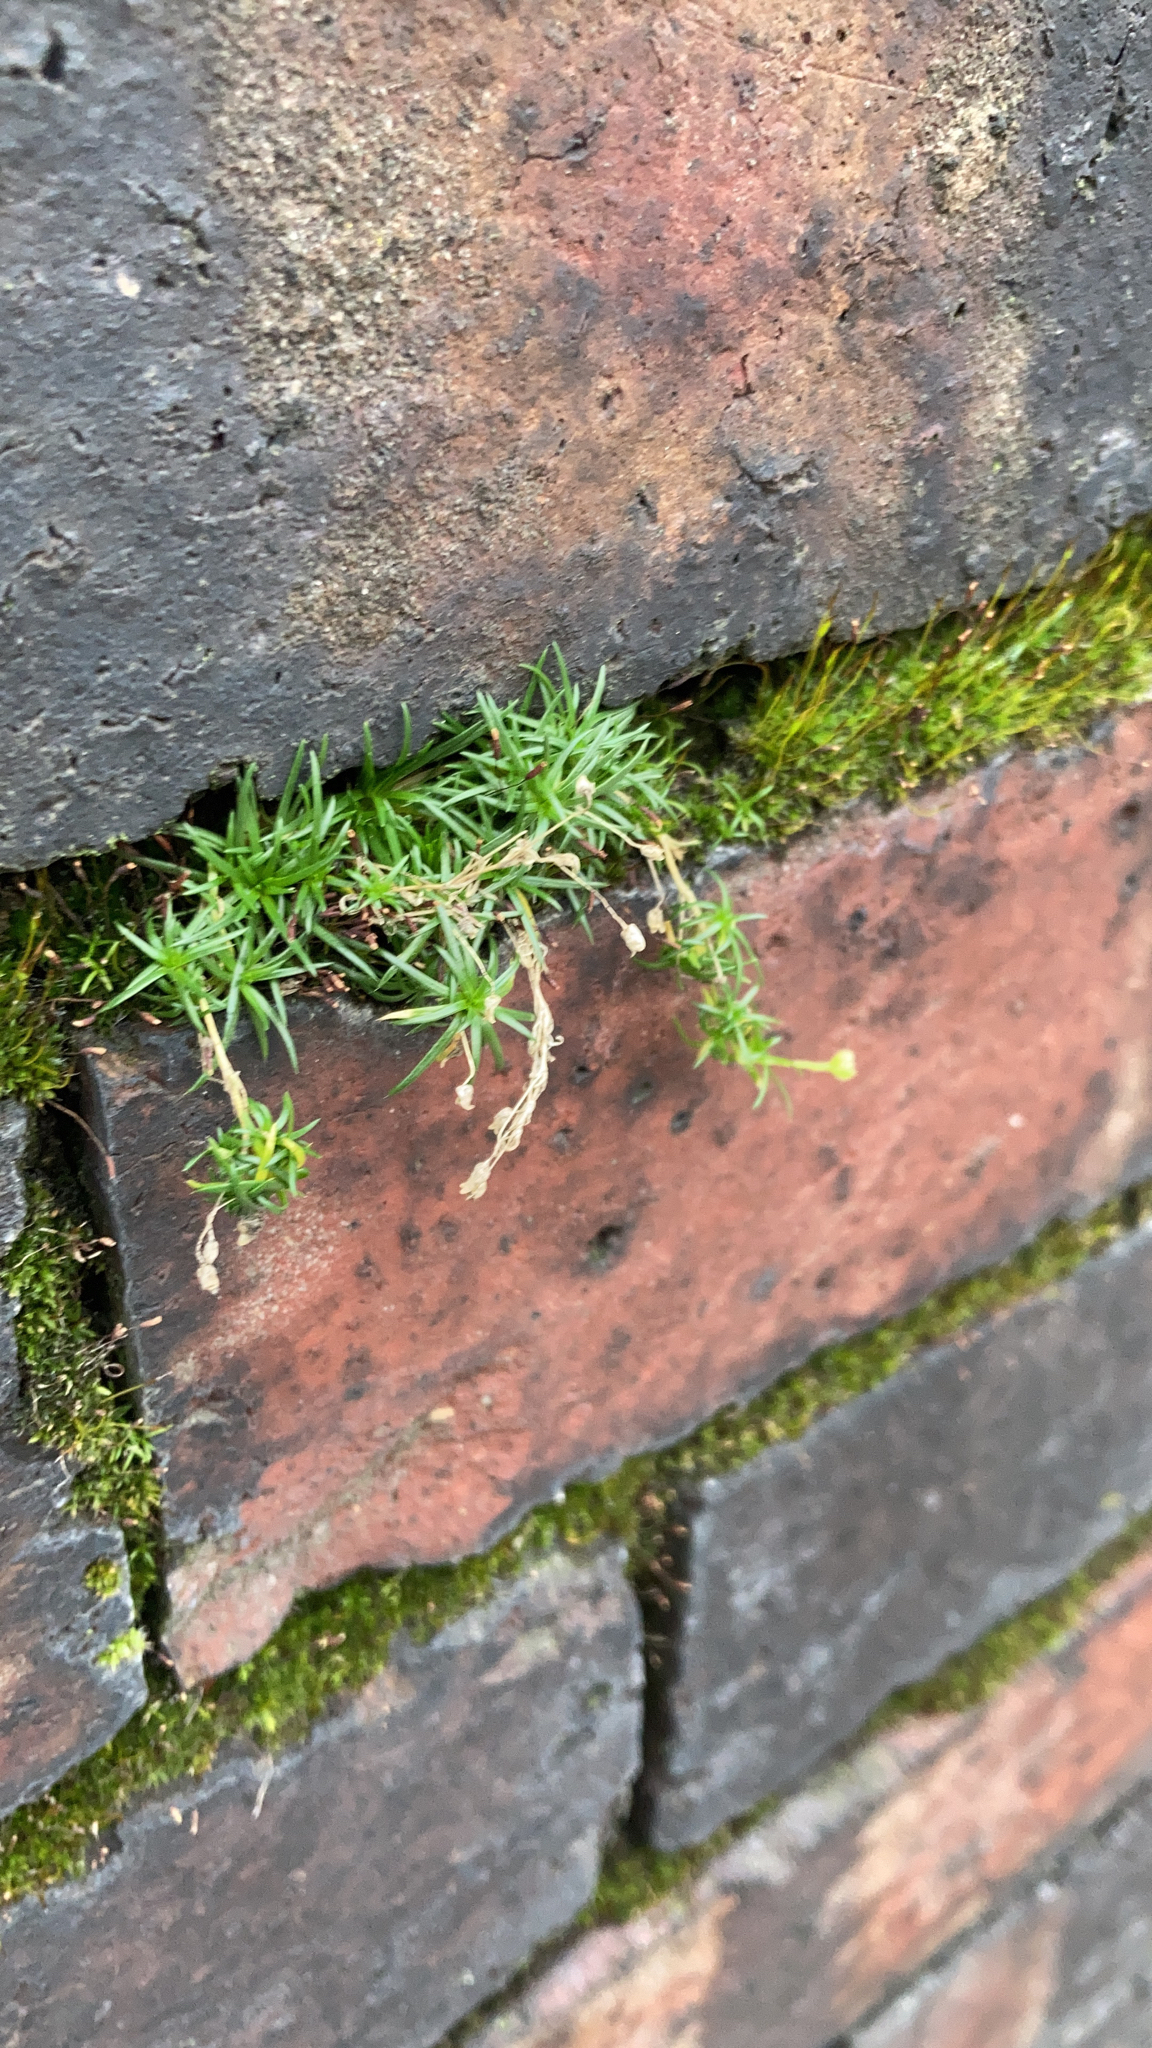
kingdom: Plantae
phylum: Tracheophyta
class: Magnoliopsida
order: Caryophyllales
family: Caryophyllaceae
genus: Sagina
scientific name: Sagina procumbens
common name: Procumbent pearlwort
